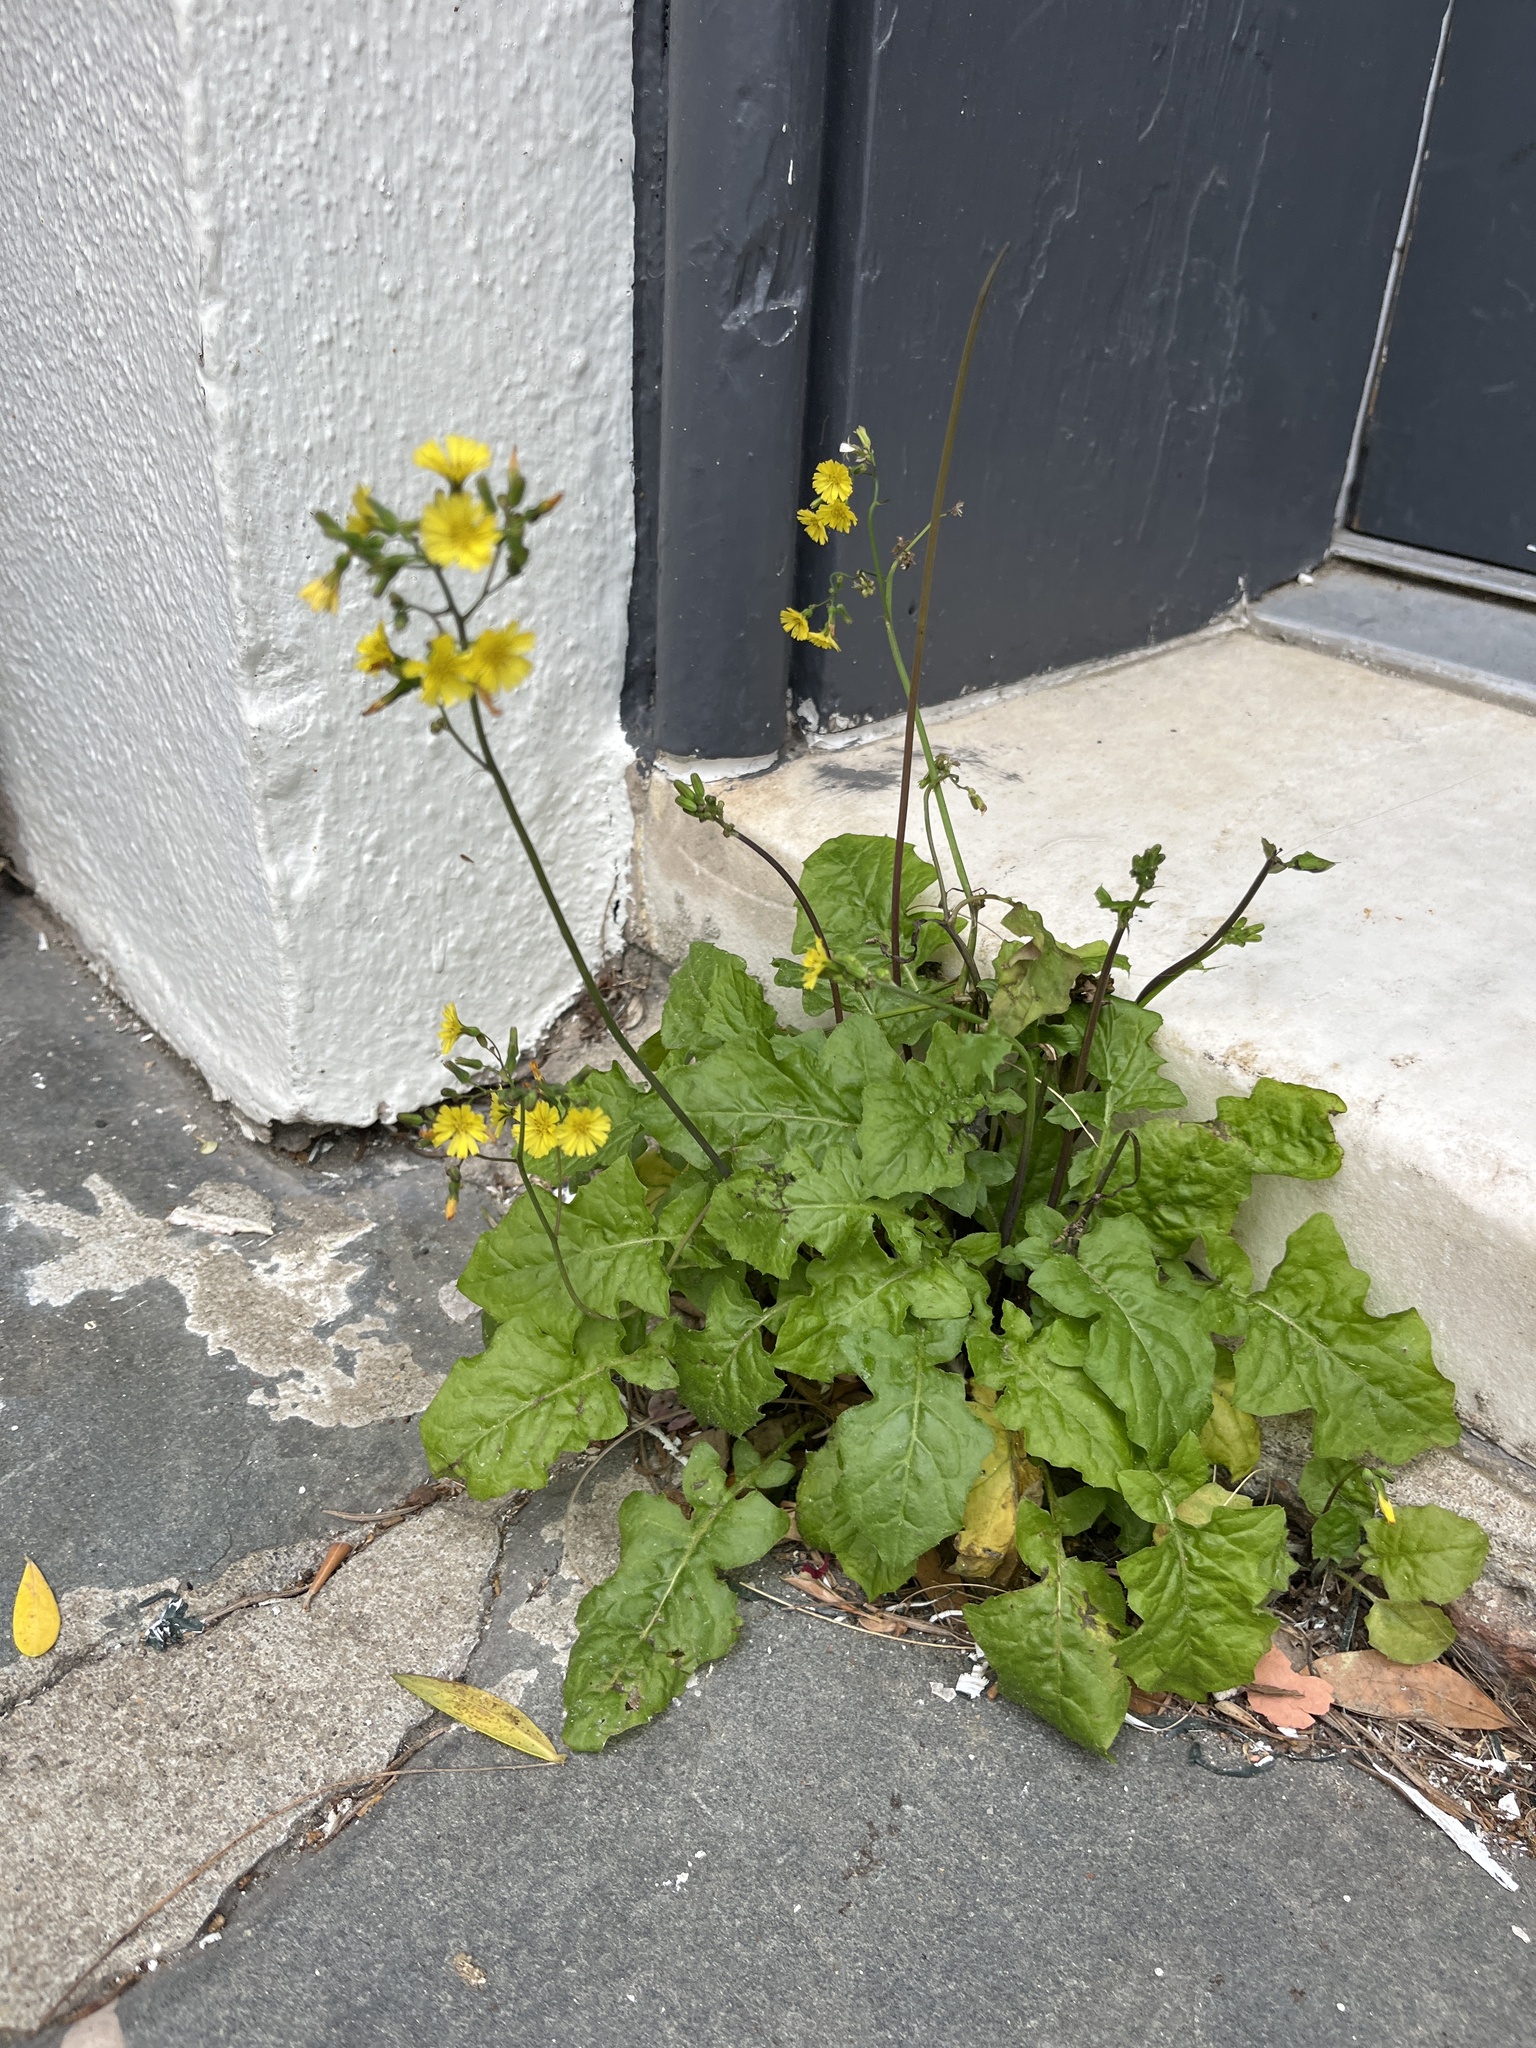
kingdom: Plantae
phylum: Tracheophyta
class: Magnoliopsida
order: Asterales
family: Asteraceae
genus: Youngia
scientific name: Youngia japonica
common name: Oriental false hawksbeard
